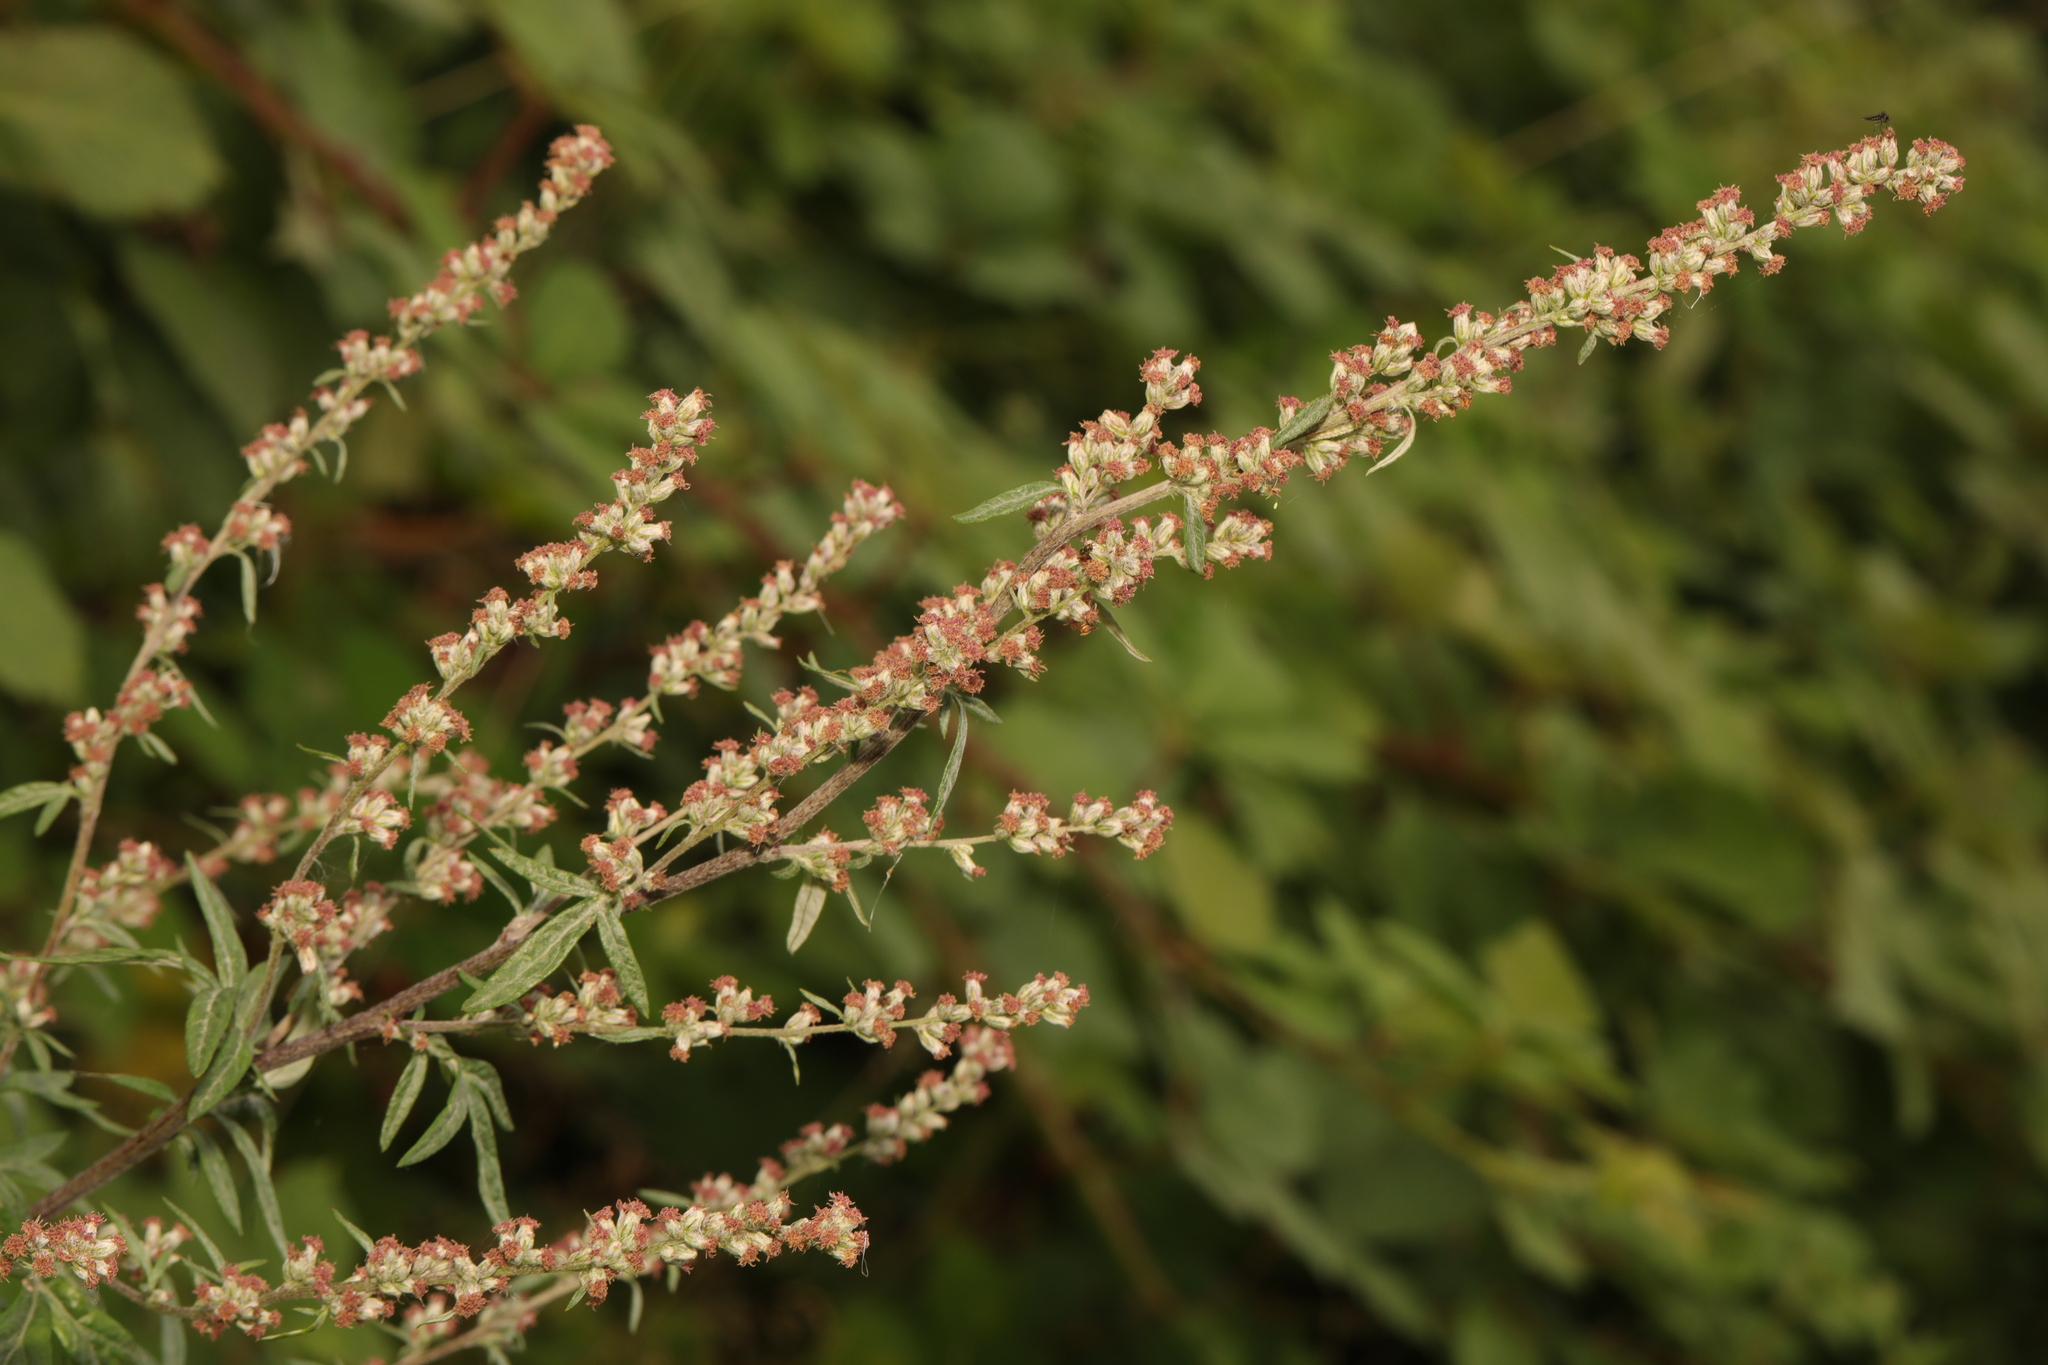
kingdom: Plantae
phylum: Tracheophyta
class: Magnoliopsida
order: Asterales
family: Asteraceae
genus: Artemisia
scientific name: Artemisia vulgaris
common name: Mugwort
